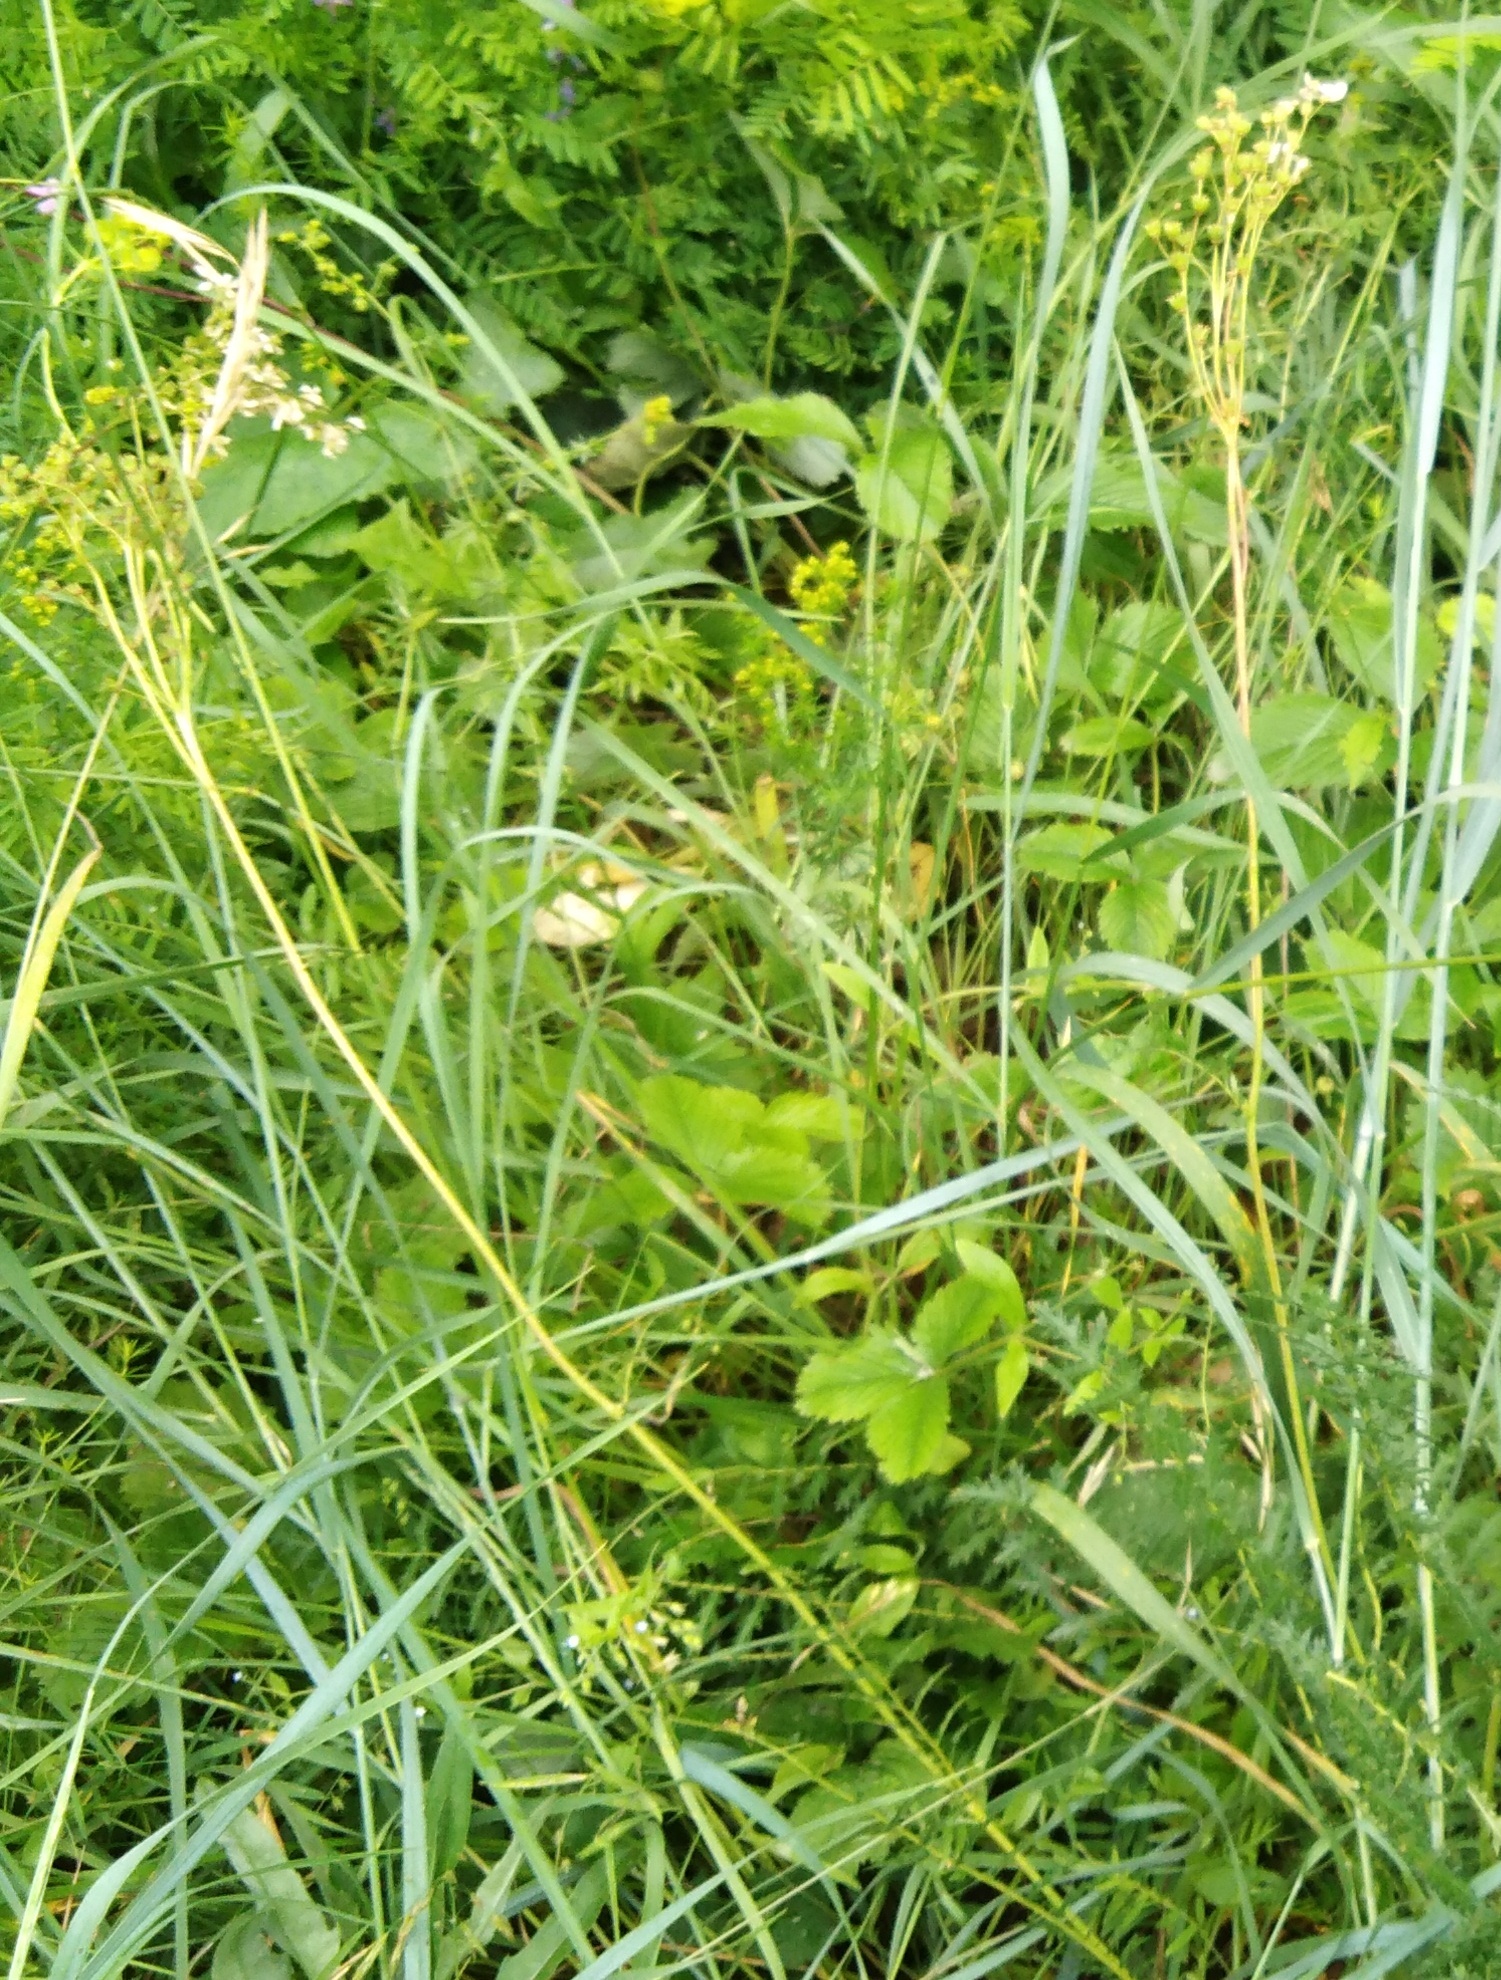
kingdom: Plantae
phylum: Tracheophyta
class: Magnoliopsida
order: Rosales
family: Rosaceae
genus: Filipendula
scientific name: Filipendula vulgaris
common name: Dropwort
